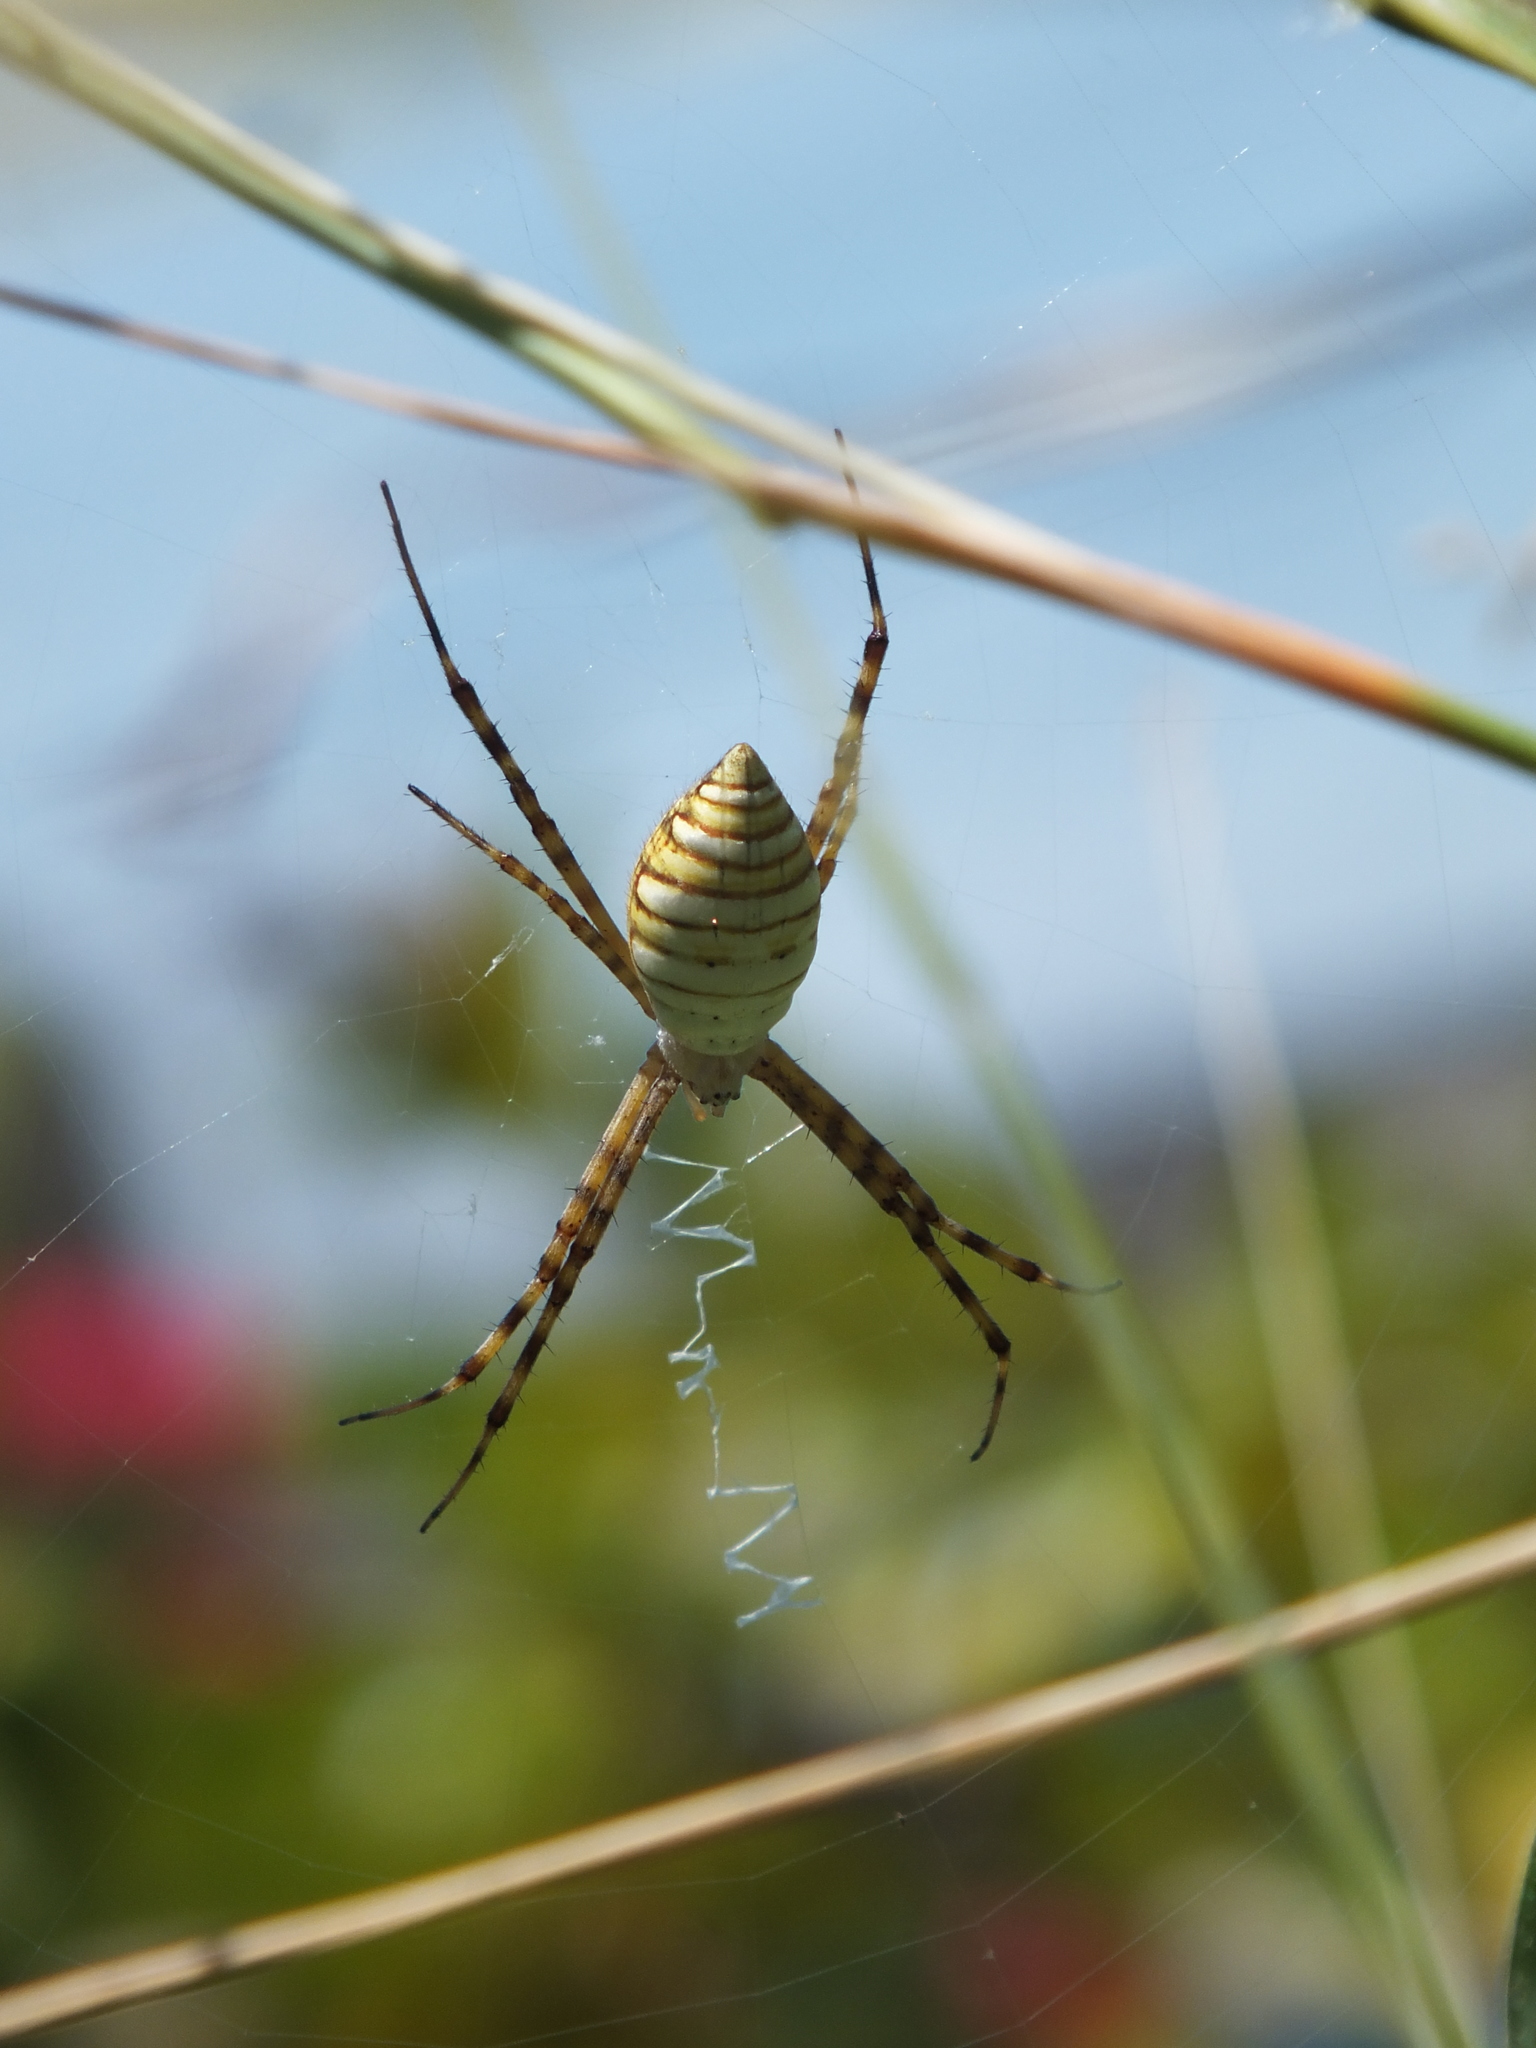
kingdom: Animalia
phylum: Arthropoda
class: Arachnida
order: Araneae
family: Araneidae
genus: Argiope
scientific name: Argiope trifasciata
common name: Banded garden spider
